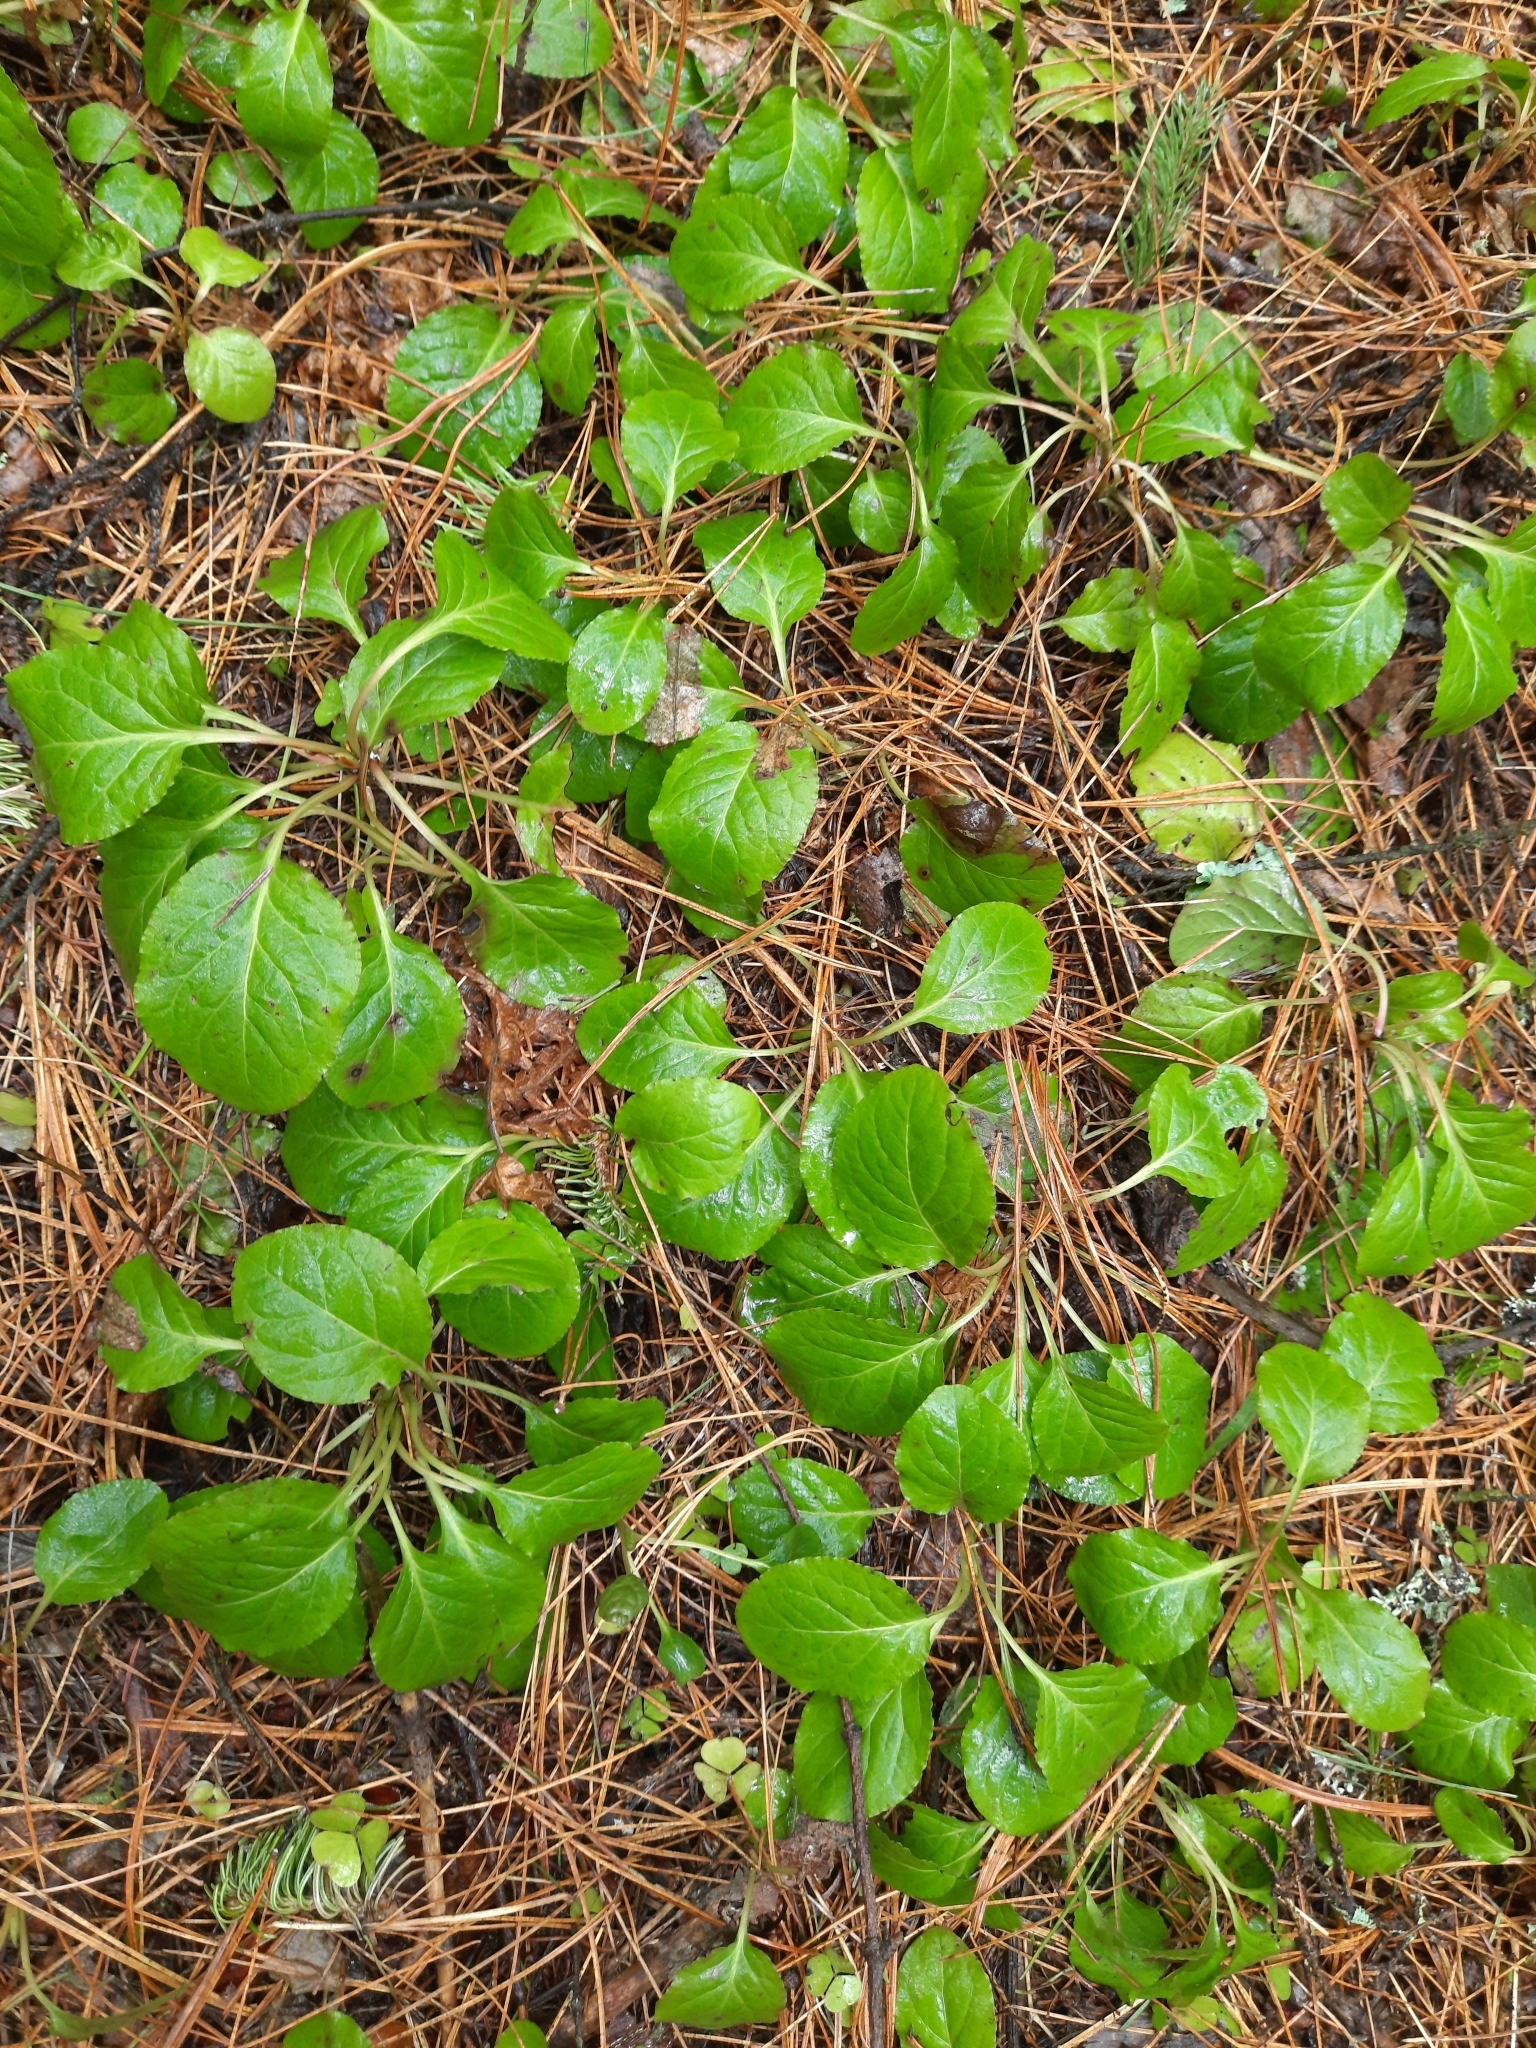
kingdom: Plantae
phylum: Tracheophyta
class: Magnoliopsida
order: Ericales
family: Ericaceae
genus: Orthilia
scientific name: Orthilia secunda
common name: One-sided orthilia
